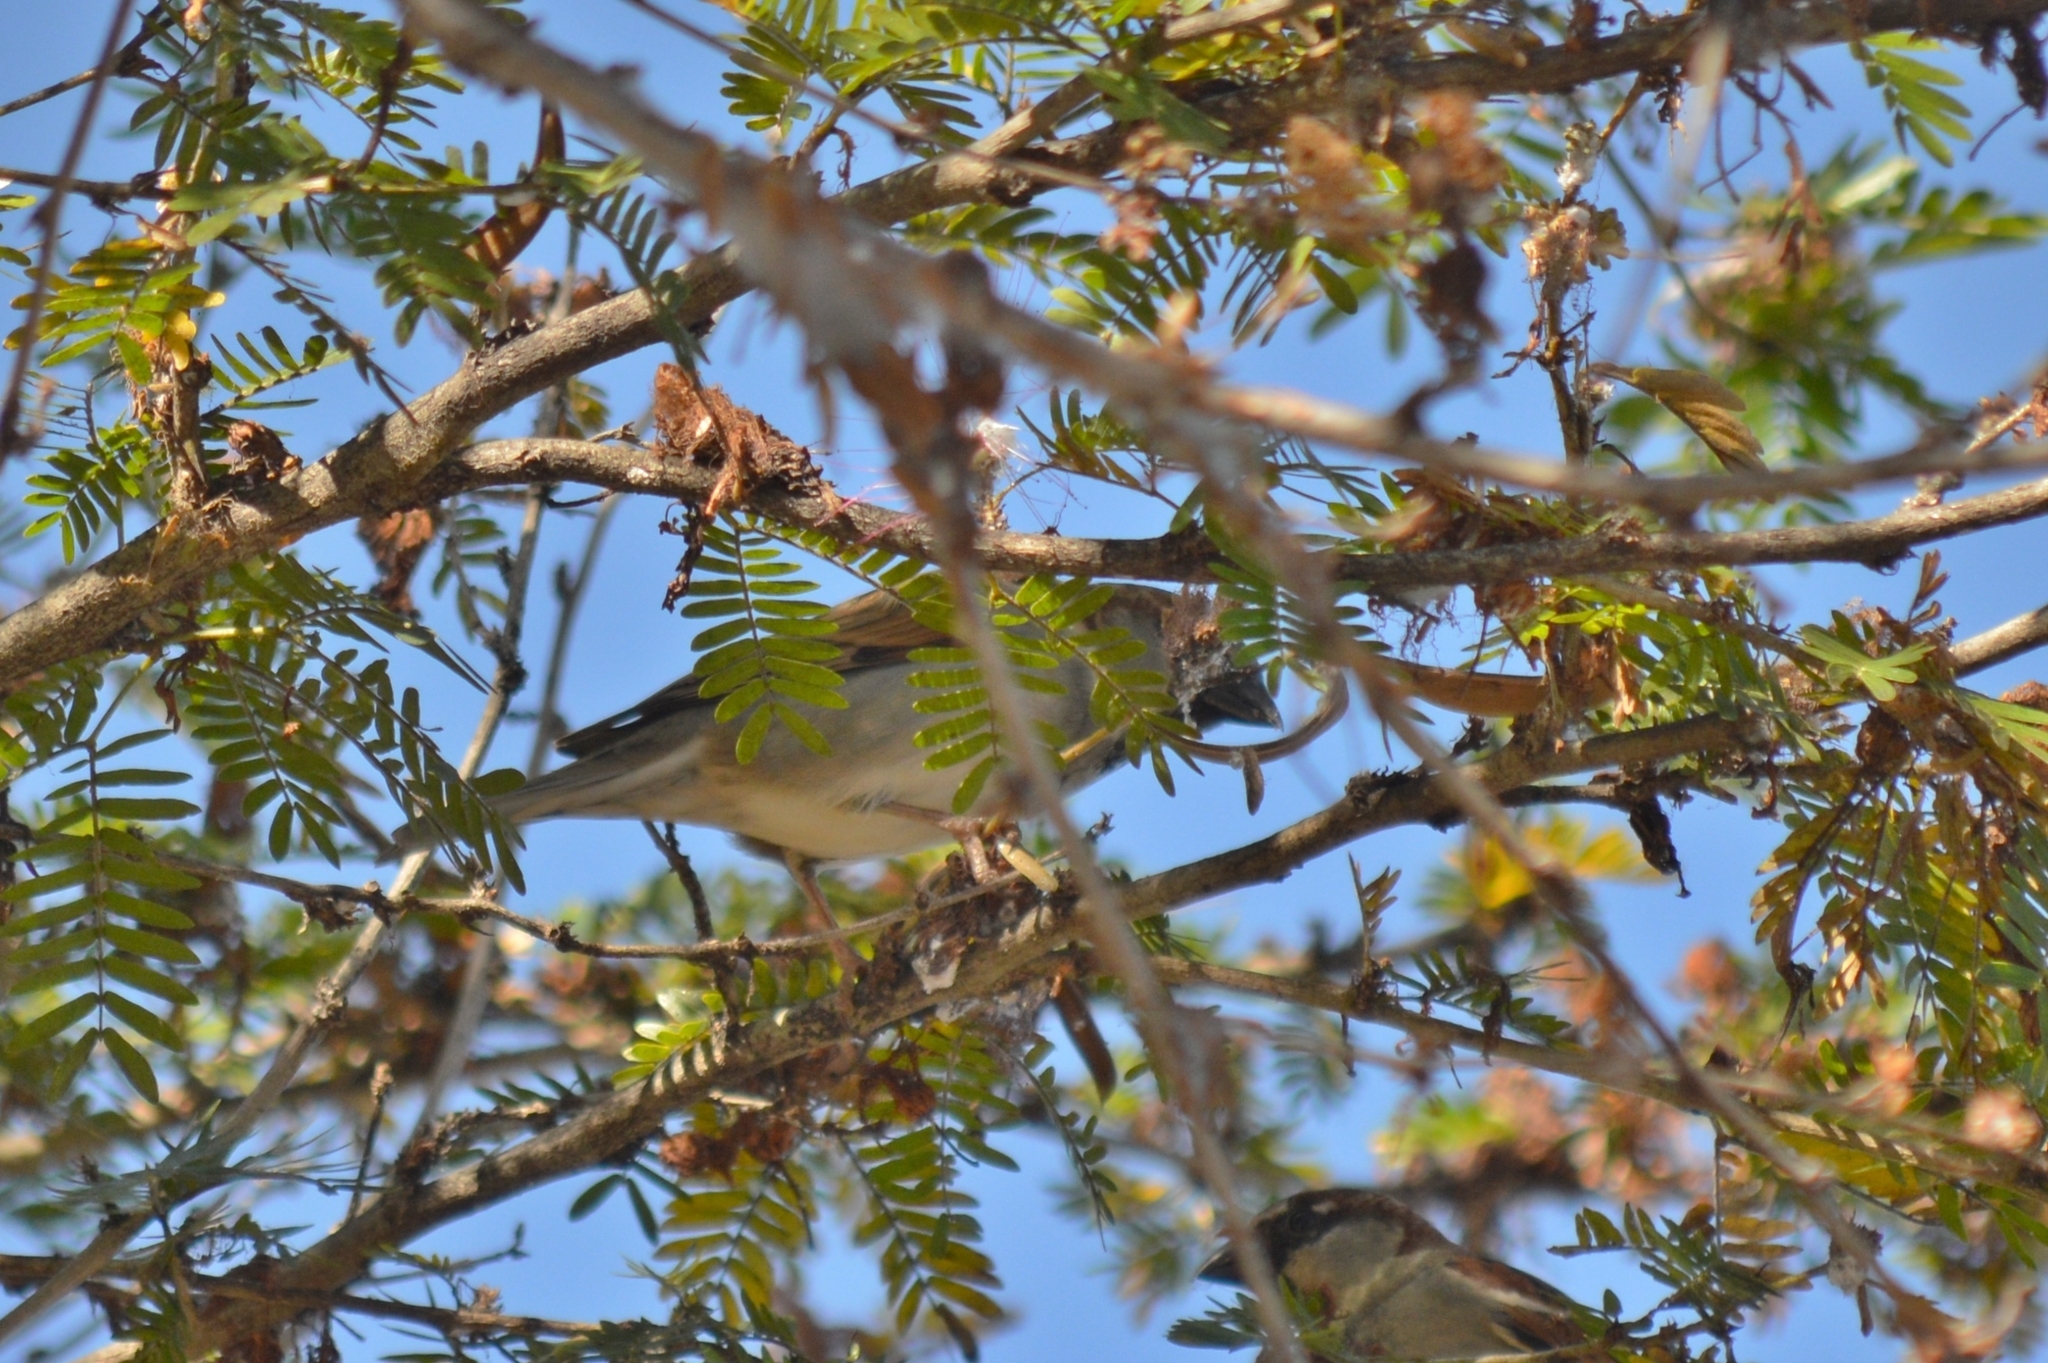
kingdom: Animalia
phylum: Chordata
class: Aves
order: Passeriformes
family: Passeridae
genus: Passer
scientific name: Passer domesticus
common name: House sparrow
